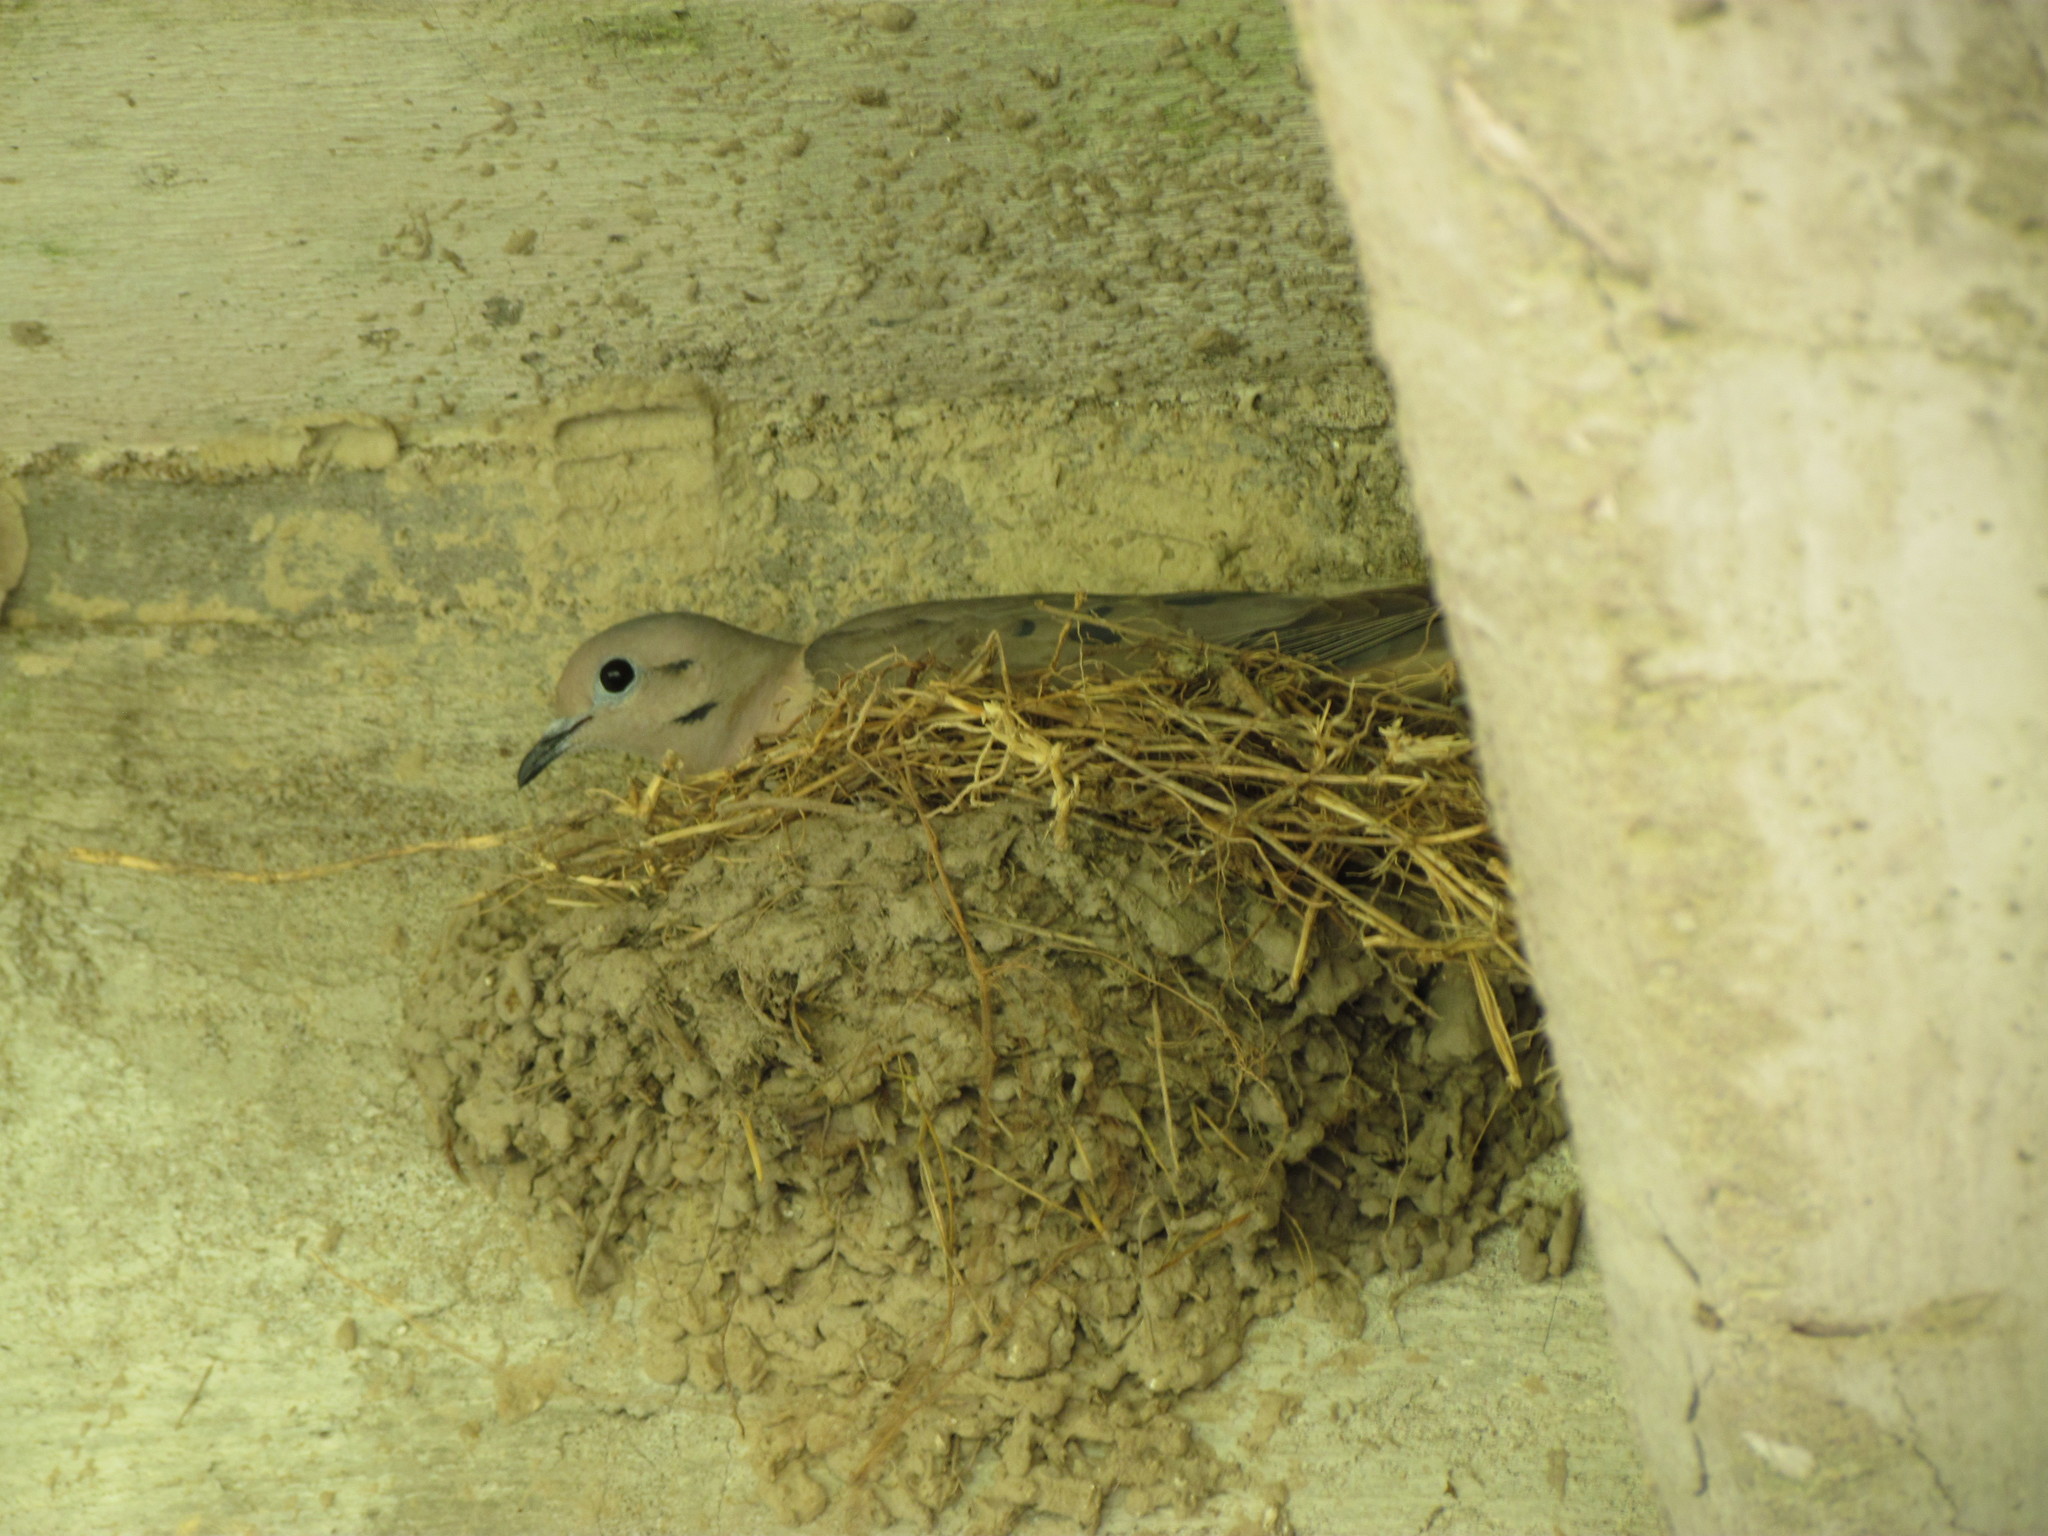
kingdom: Animalia
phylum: Chordata
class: Aves
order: Columbiformes
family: Columbidae
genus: Zenaida
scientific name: Zenaida auriculata
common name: Eared dove
